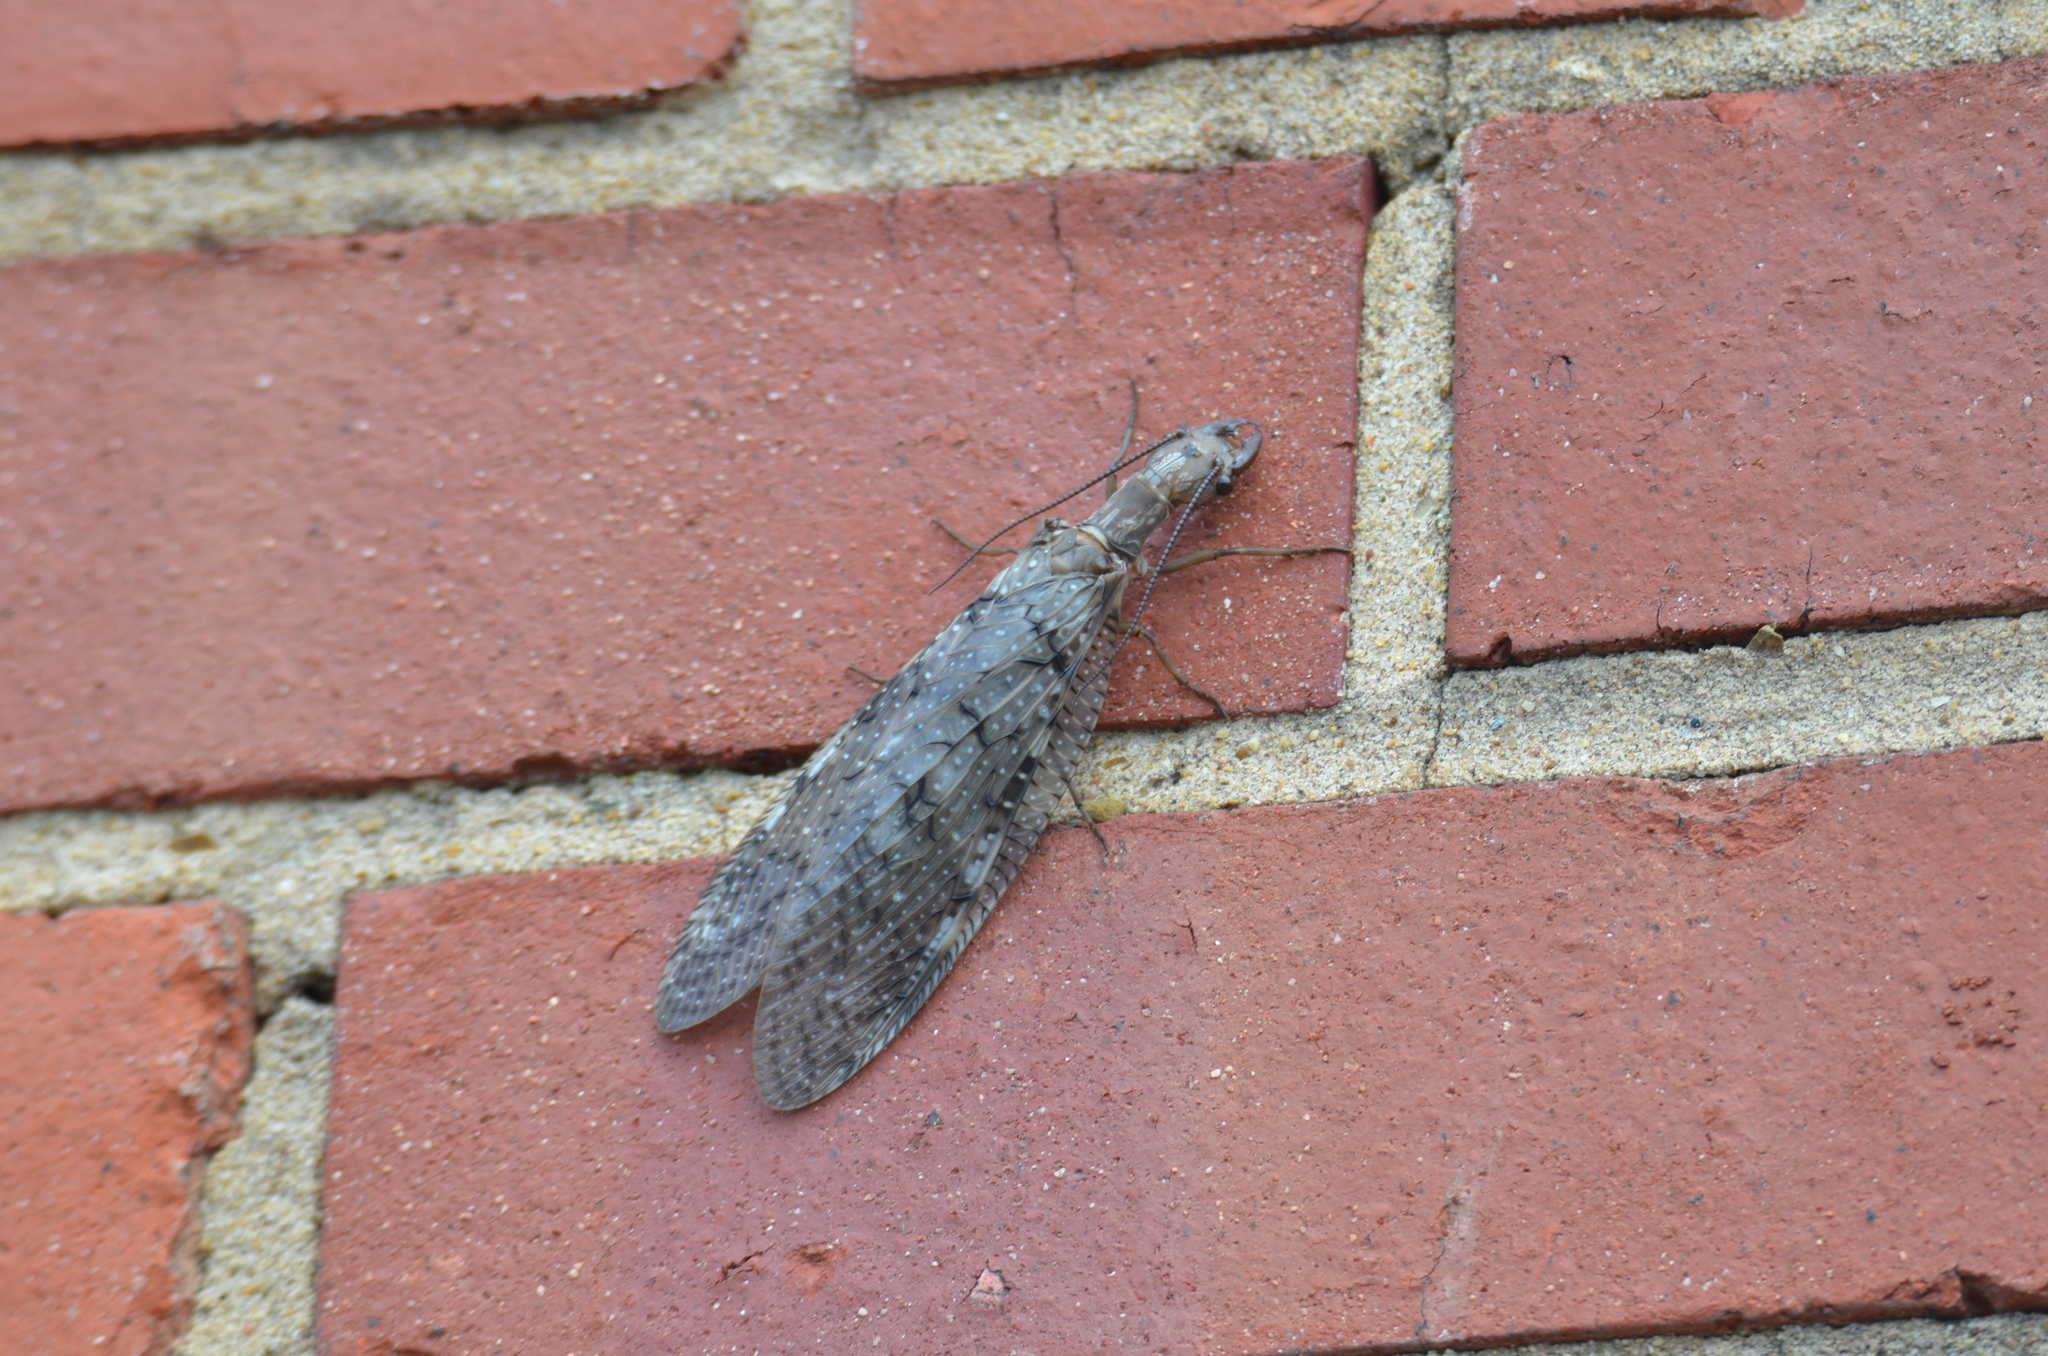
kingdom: Animalia
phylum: Arthropoda
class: Insecta
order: Megaloptera
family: Corydalidae
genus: Corydalus
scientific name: Corydalus cornutus
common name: Dobsonfly
